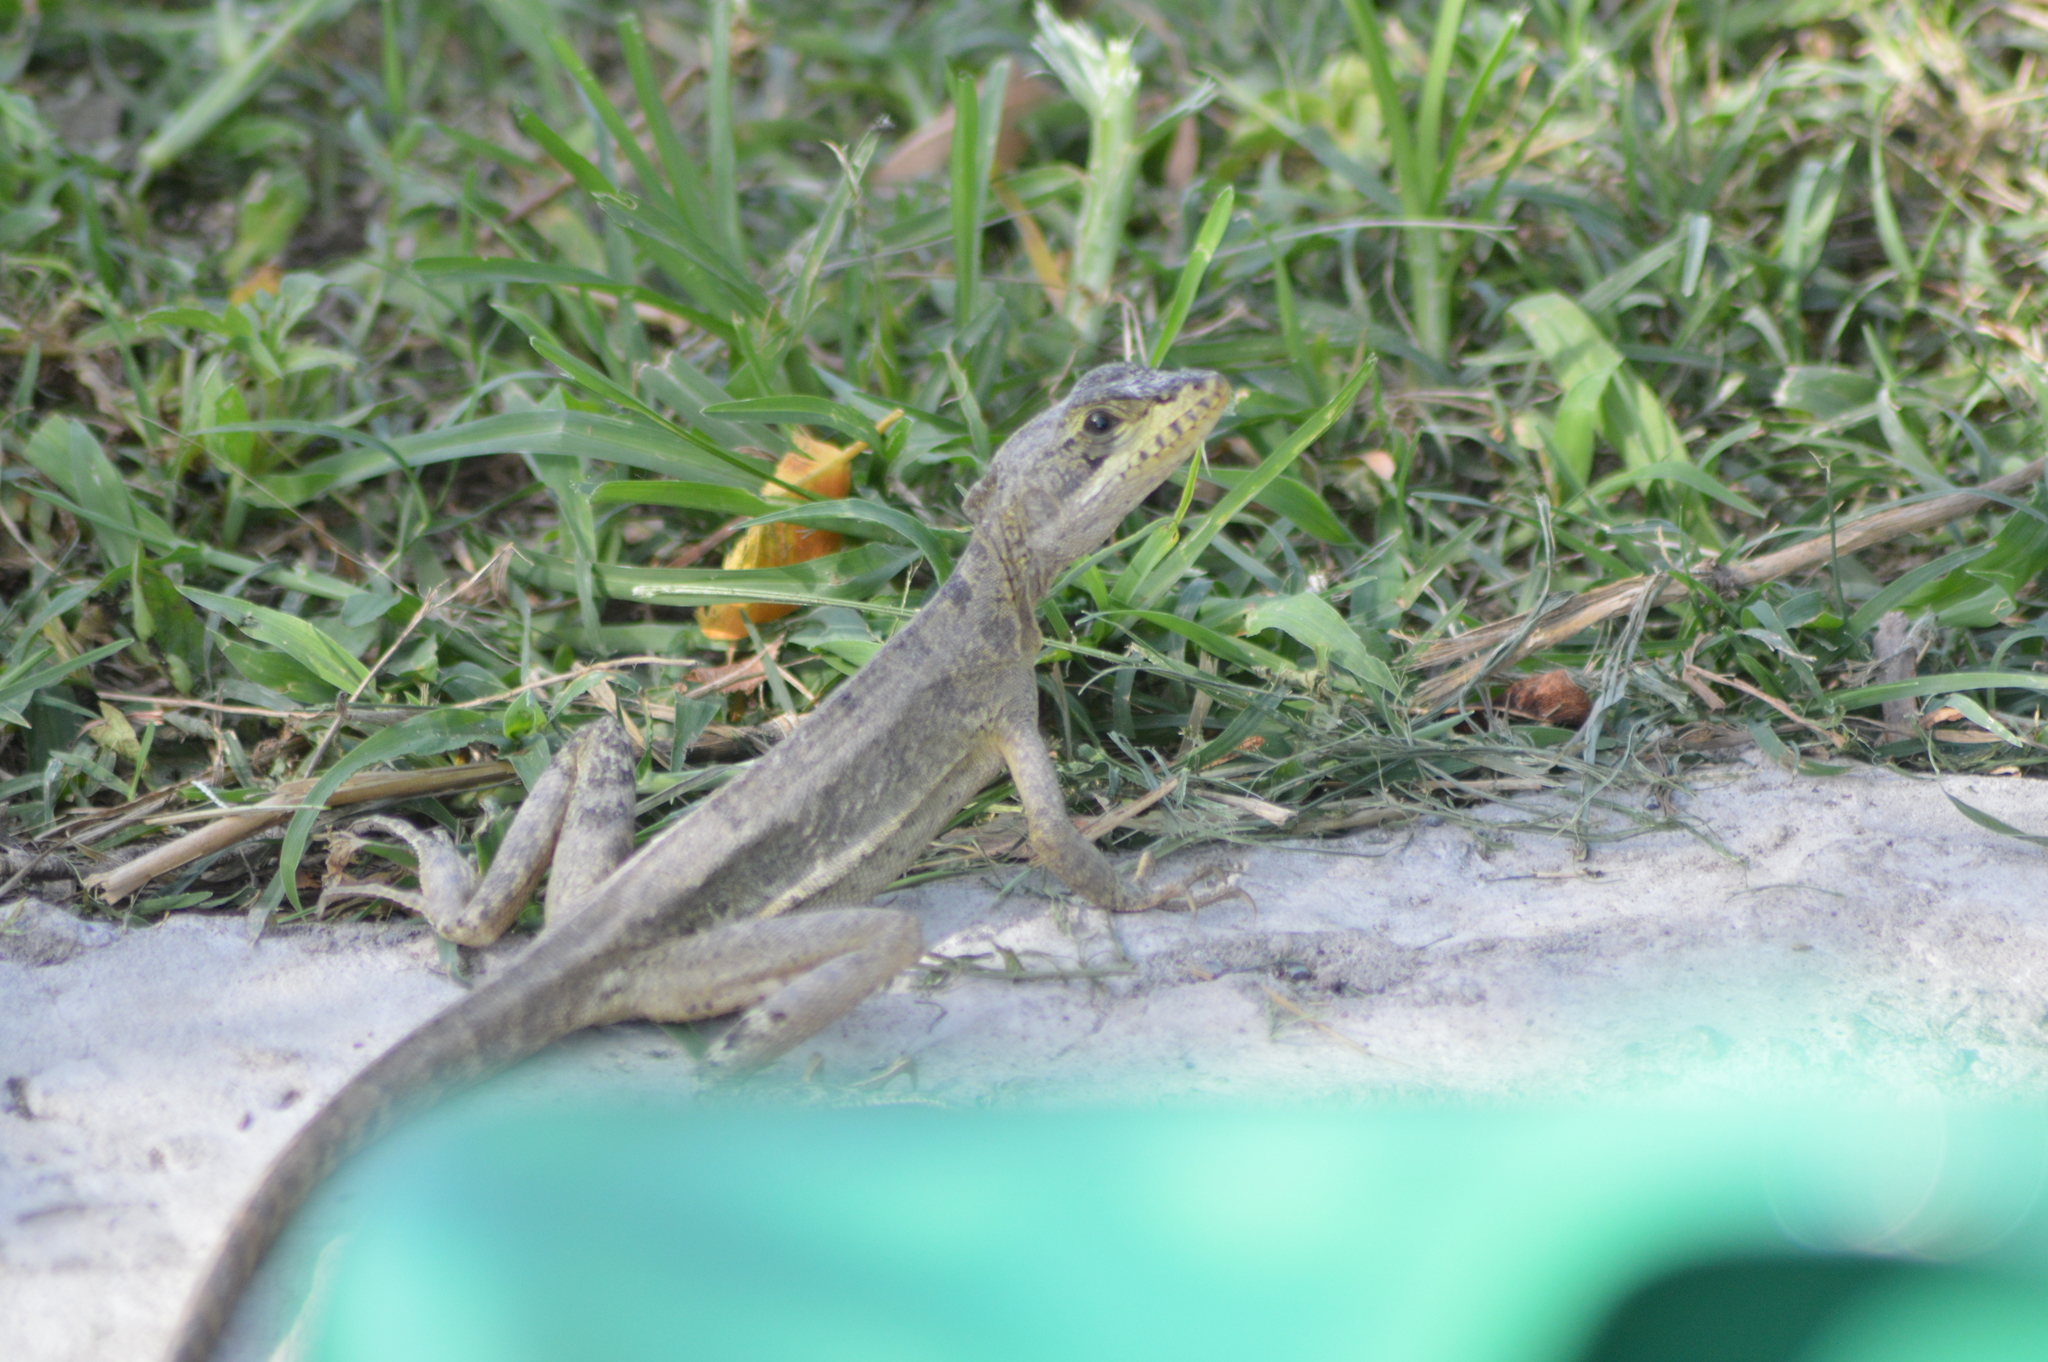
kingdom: Animalia
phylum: Chordata
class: Squamata
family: Corytophanidae
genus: Basiliscus
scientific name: Basiliscus vittatus
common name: Brown basilisk
